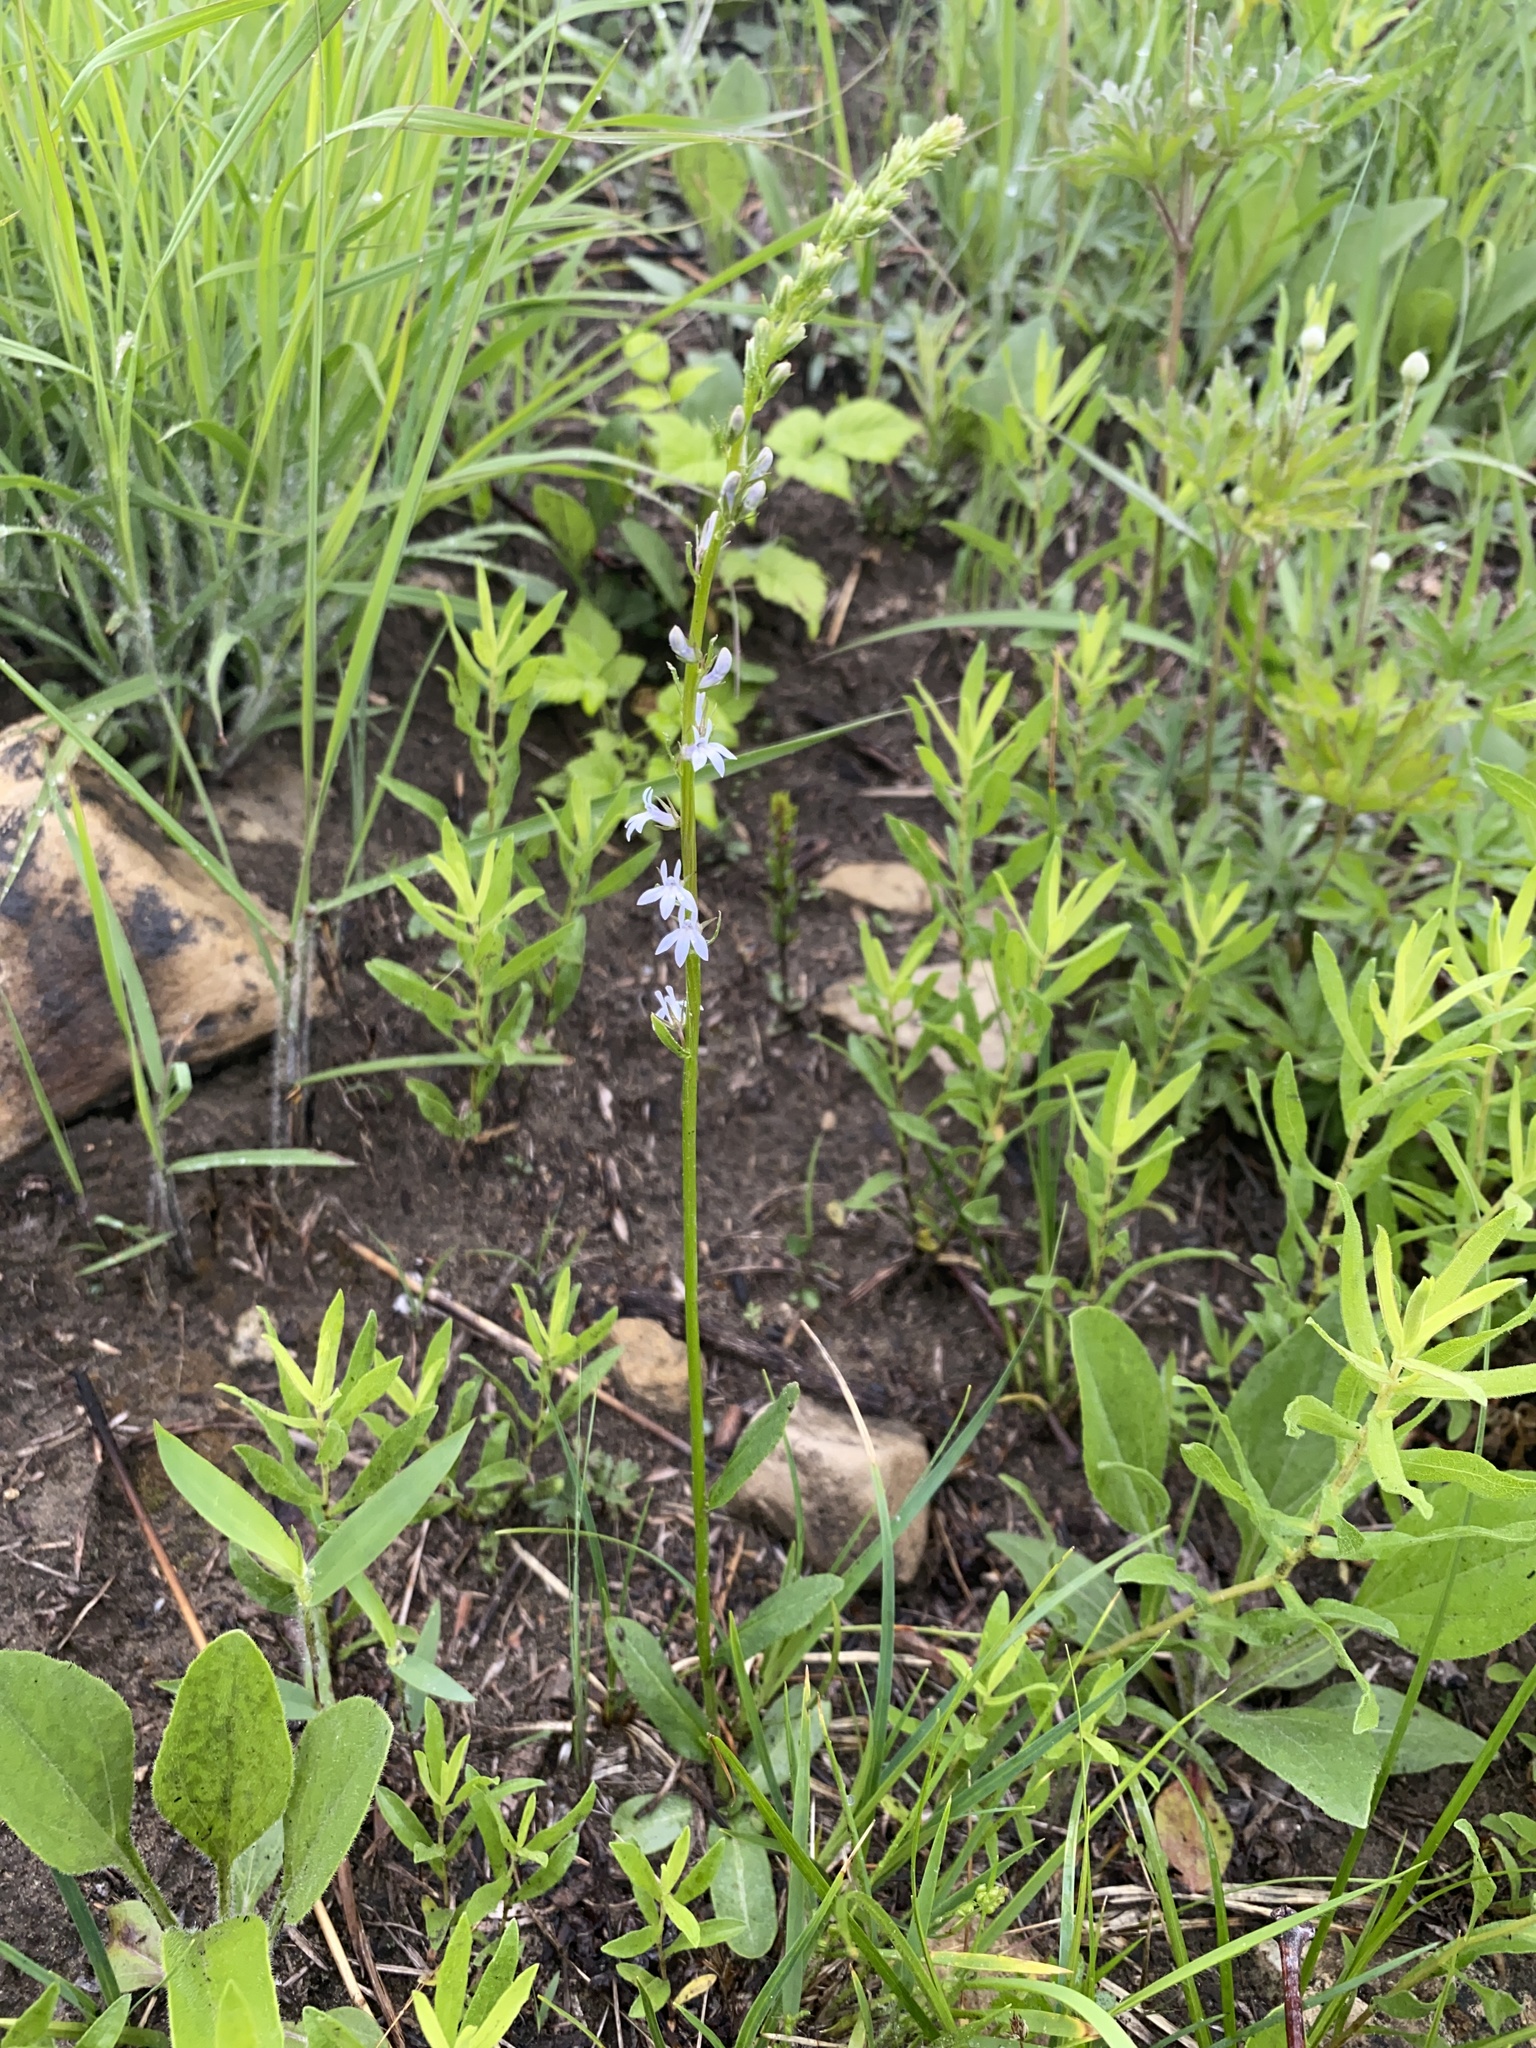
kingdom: Plantae
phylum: Tracheophyta
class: Magnoliopsida
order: Asterales
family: Campanulaceae
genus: Lobelia
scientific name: Lobelia spicata
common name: Pale-spike lobelia
